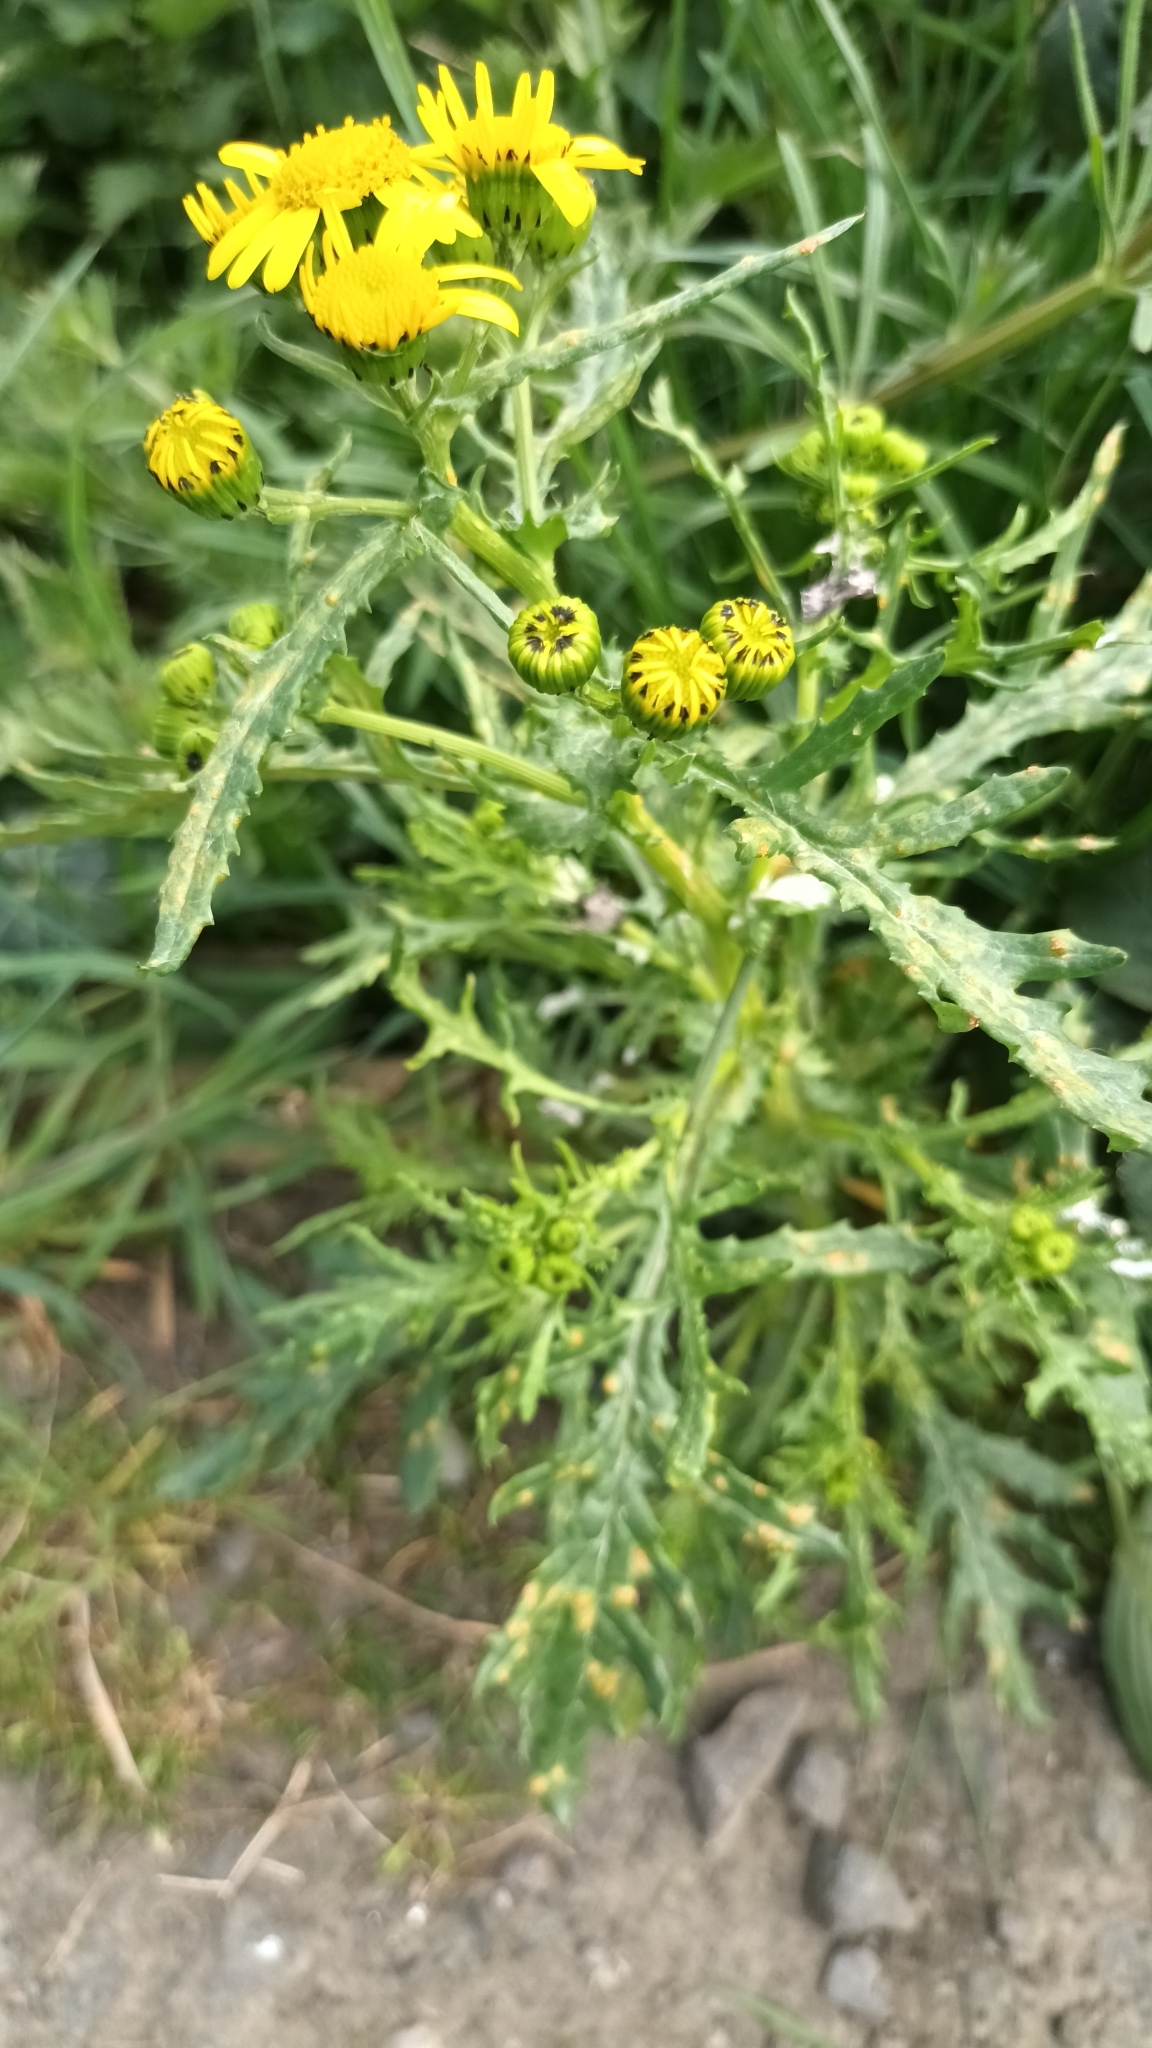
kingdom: Plantae
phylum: Tracheophyta
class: Magnoliopsida
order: Asterales
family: Asteraceae
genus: Senecio
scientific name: Senecio squalidus
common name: Oxford ragwort
